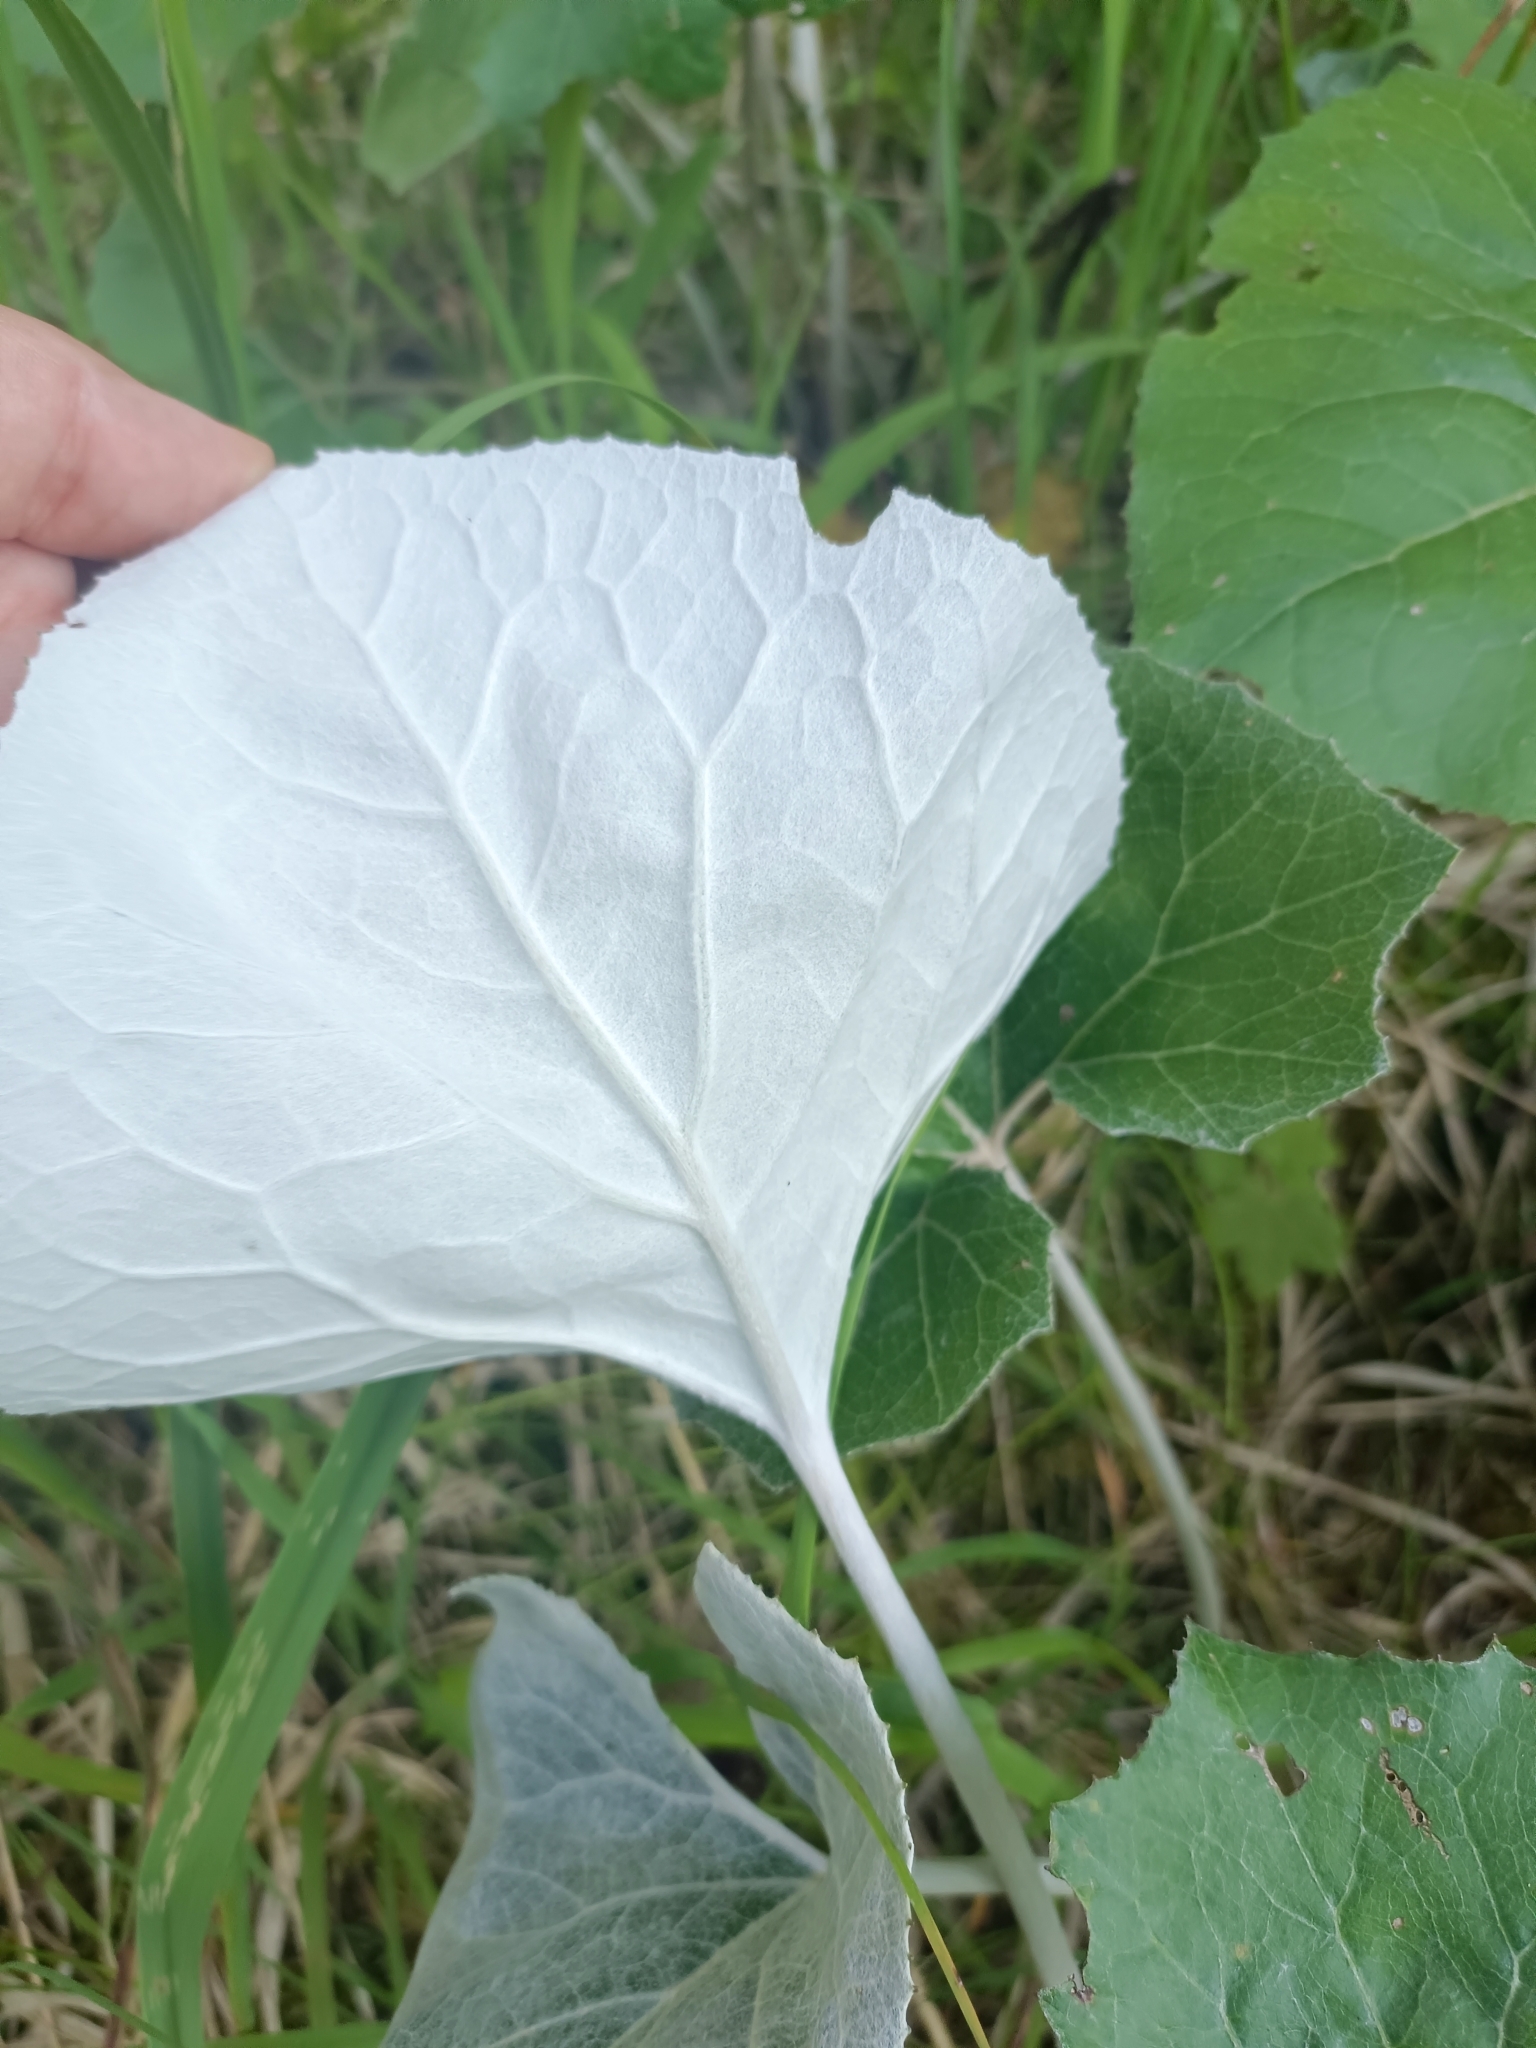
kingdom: Plantae
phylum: Tracheophyta
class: Magnoliopsida
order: Asterales
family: Asteraceae
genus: Petasites
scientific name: Petasites paradoxus
